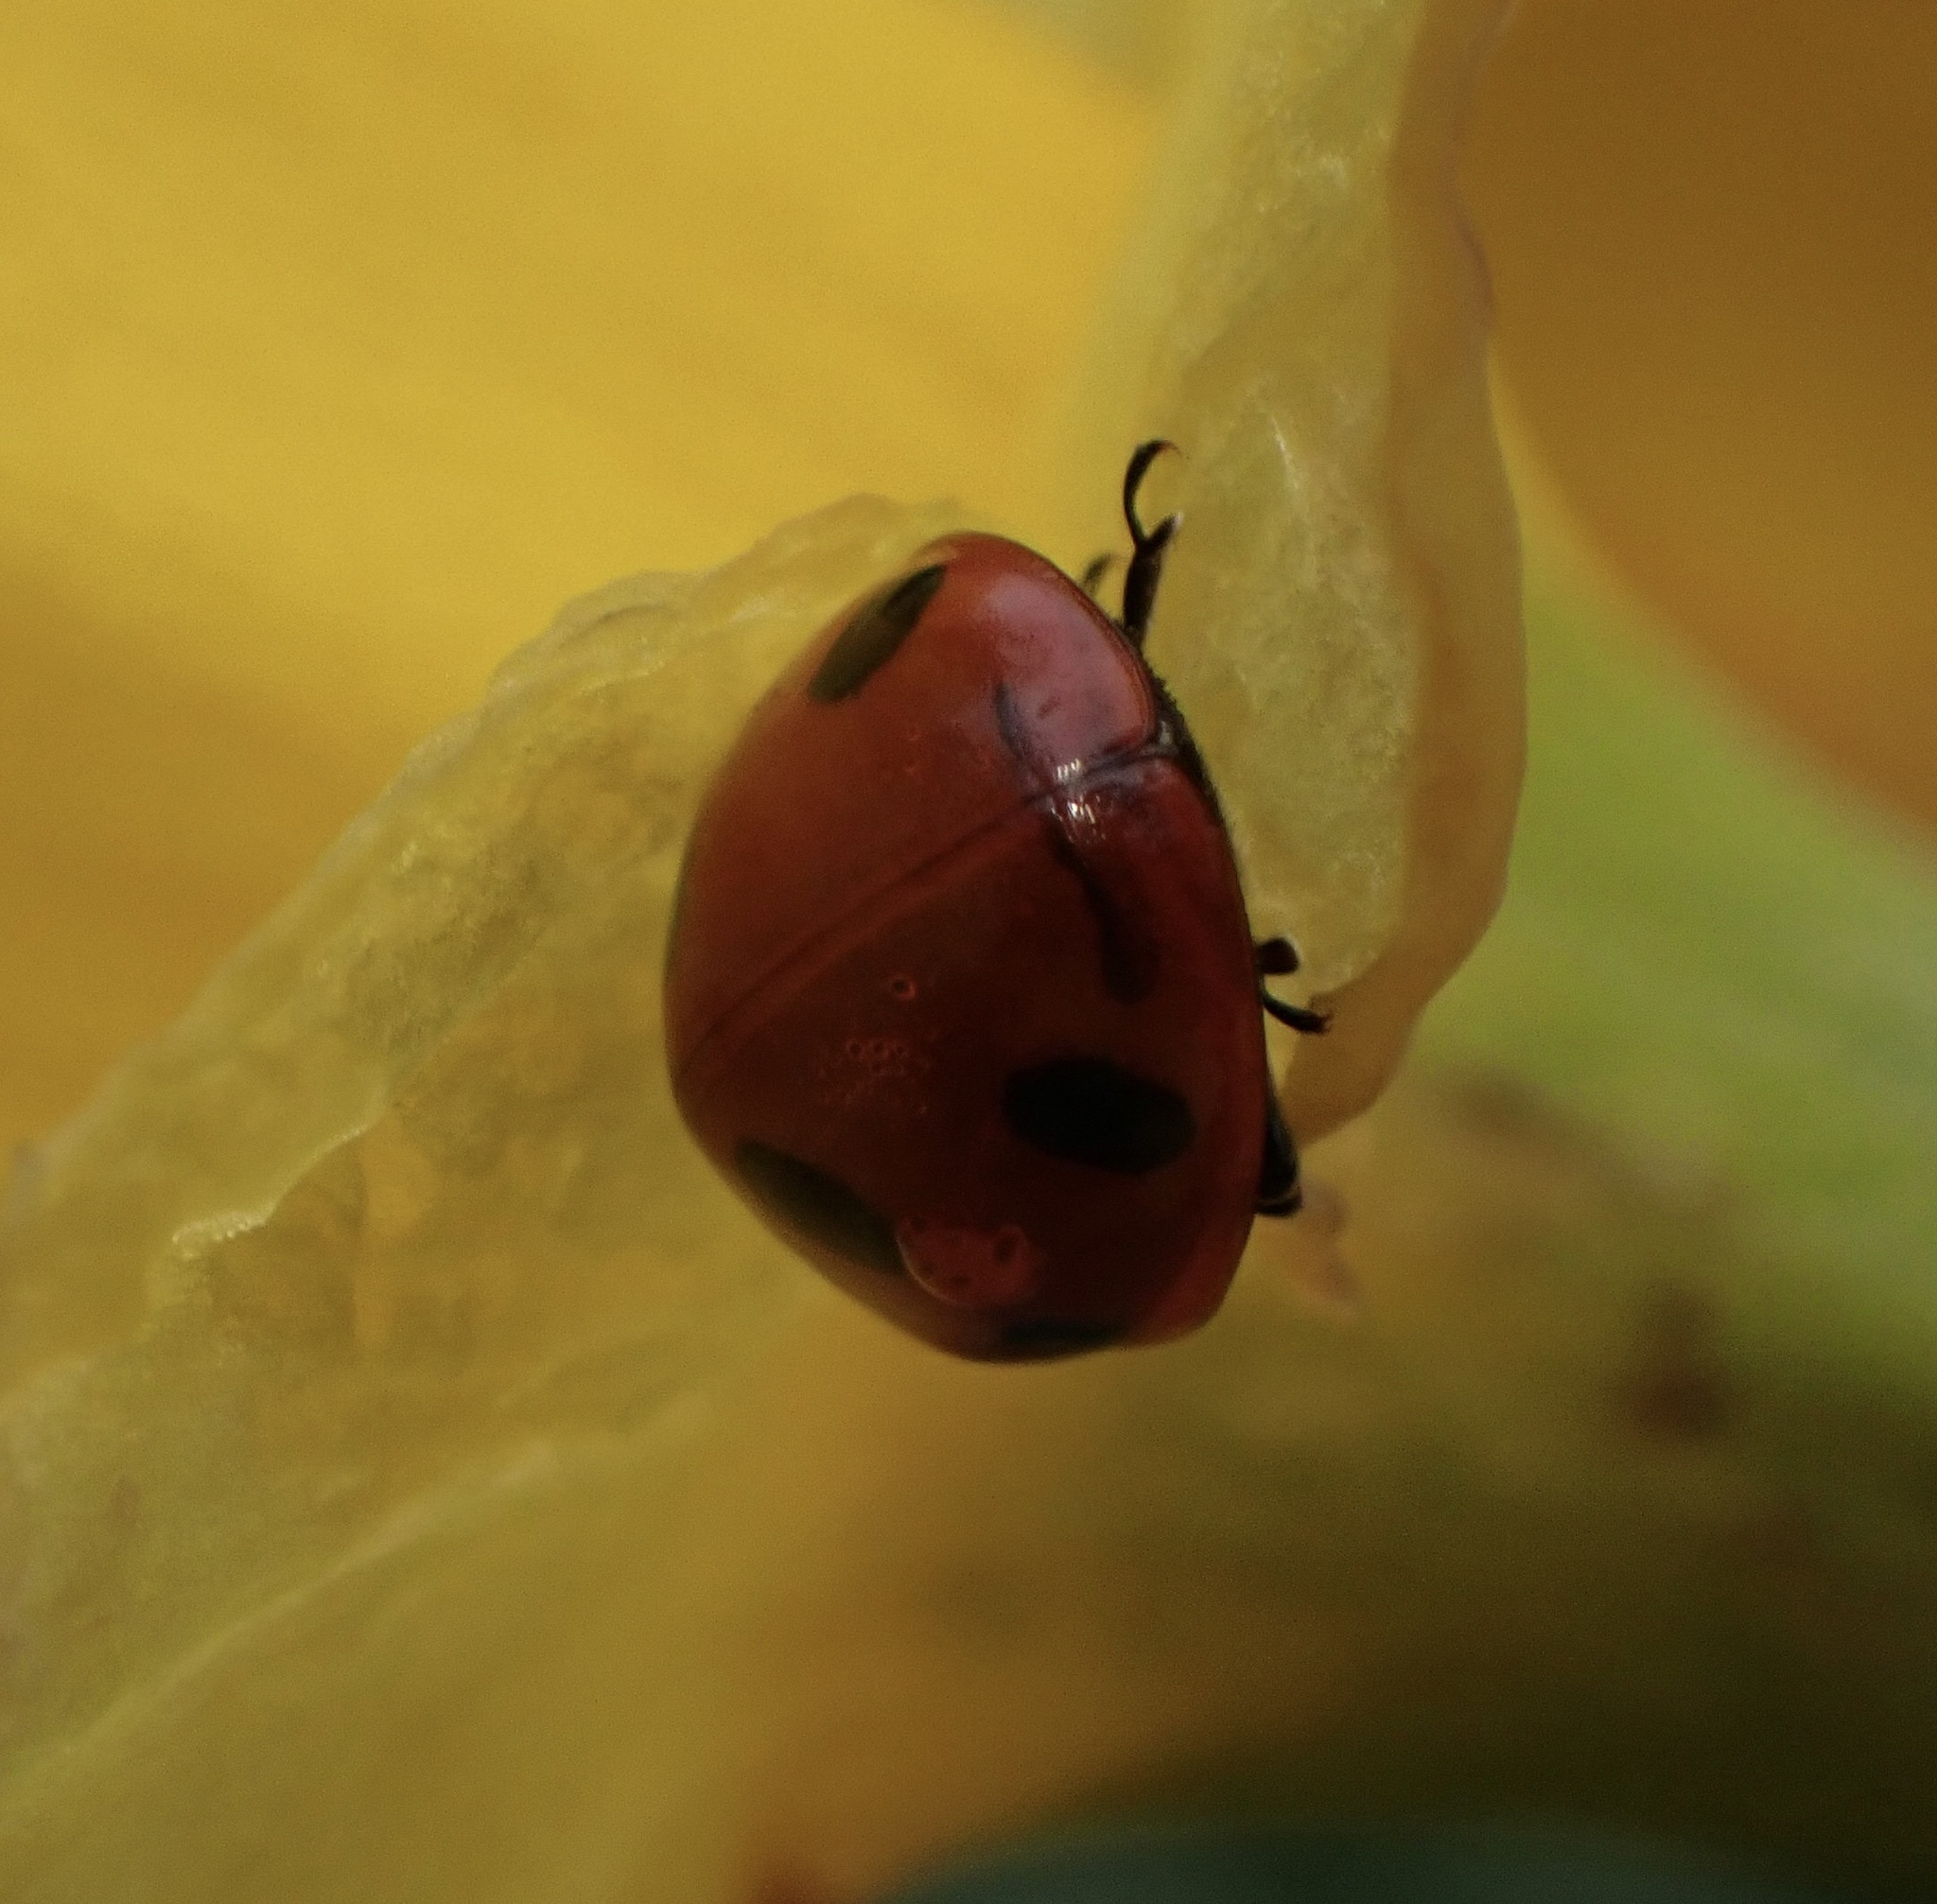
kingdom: Animalia
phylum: Arthropoda
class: Insecta
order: Coleoptera
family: Coccinellidae
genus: Coccinella
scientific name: Coccinella septempunctata
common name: Sevenspotted lady beetle
